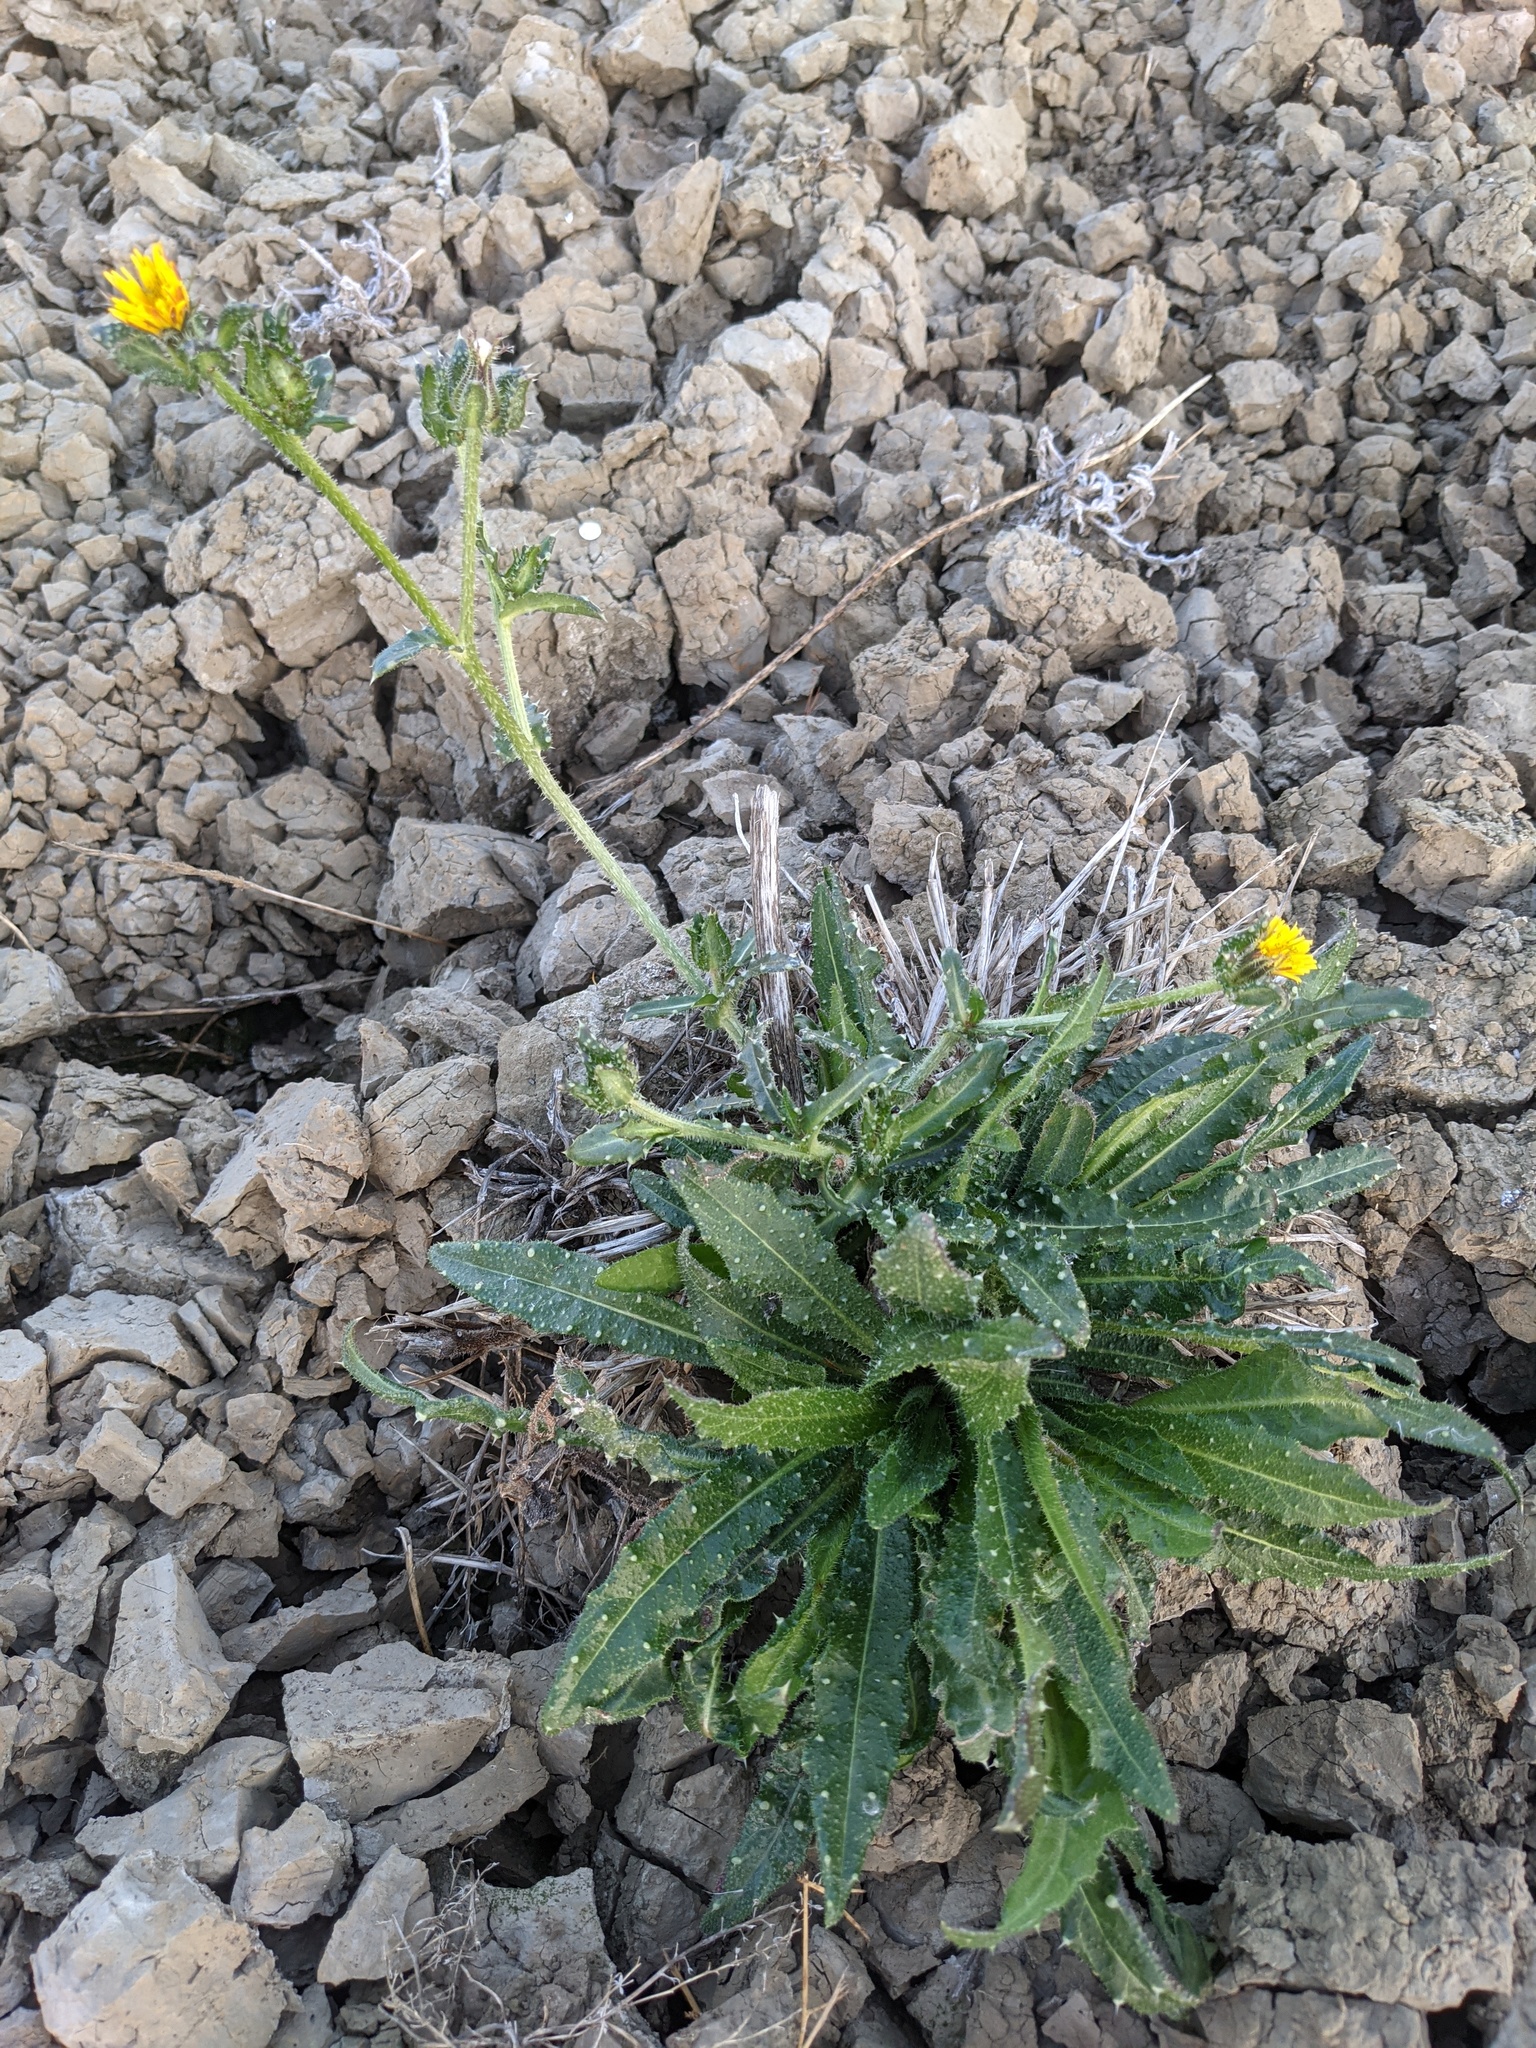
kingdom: Plantae
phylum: Tracheophyta
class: Magnoliopsida
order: Asterales
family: Asteraceae
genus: Helminthotheca
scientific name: Helminthotheca echioides
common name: Ox-tongue
